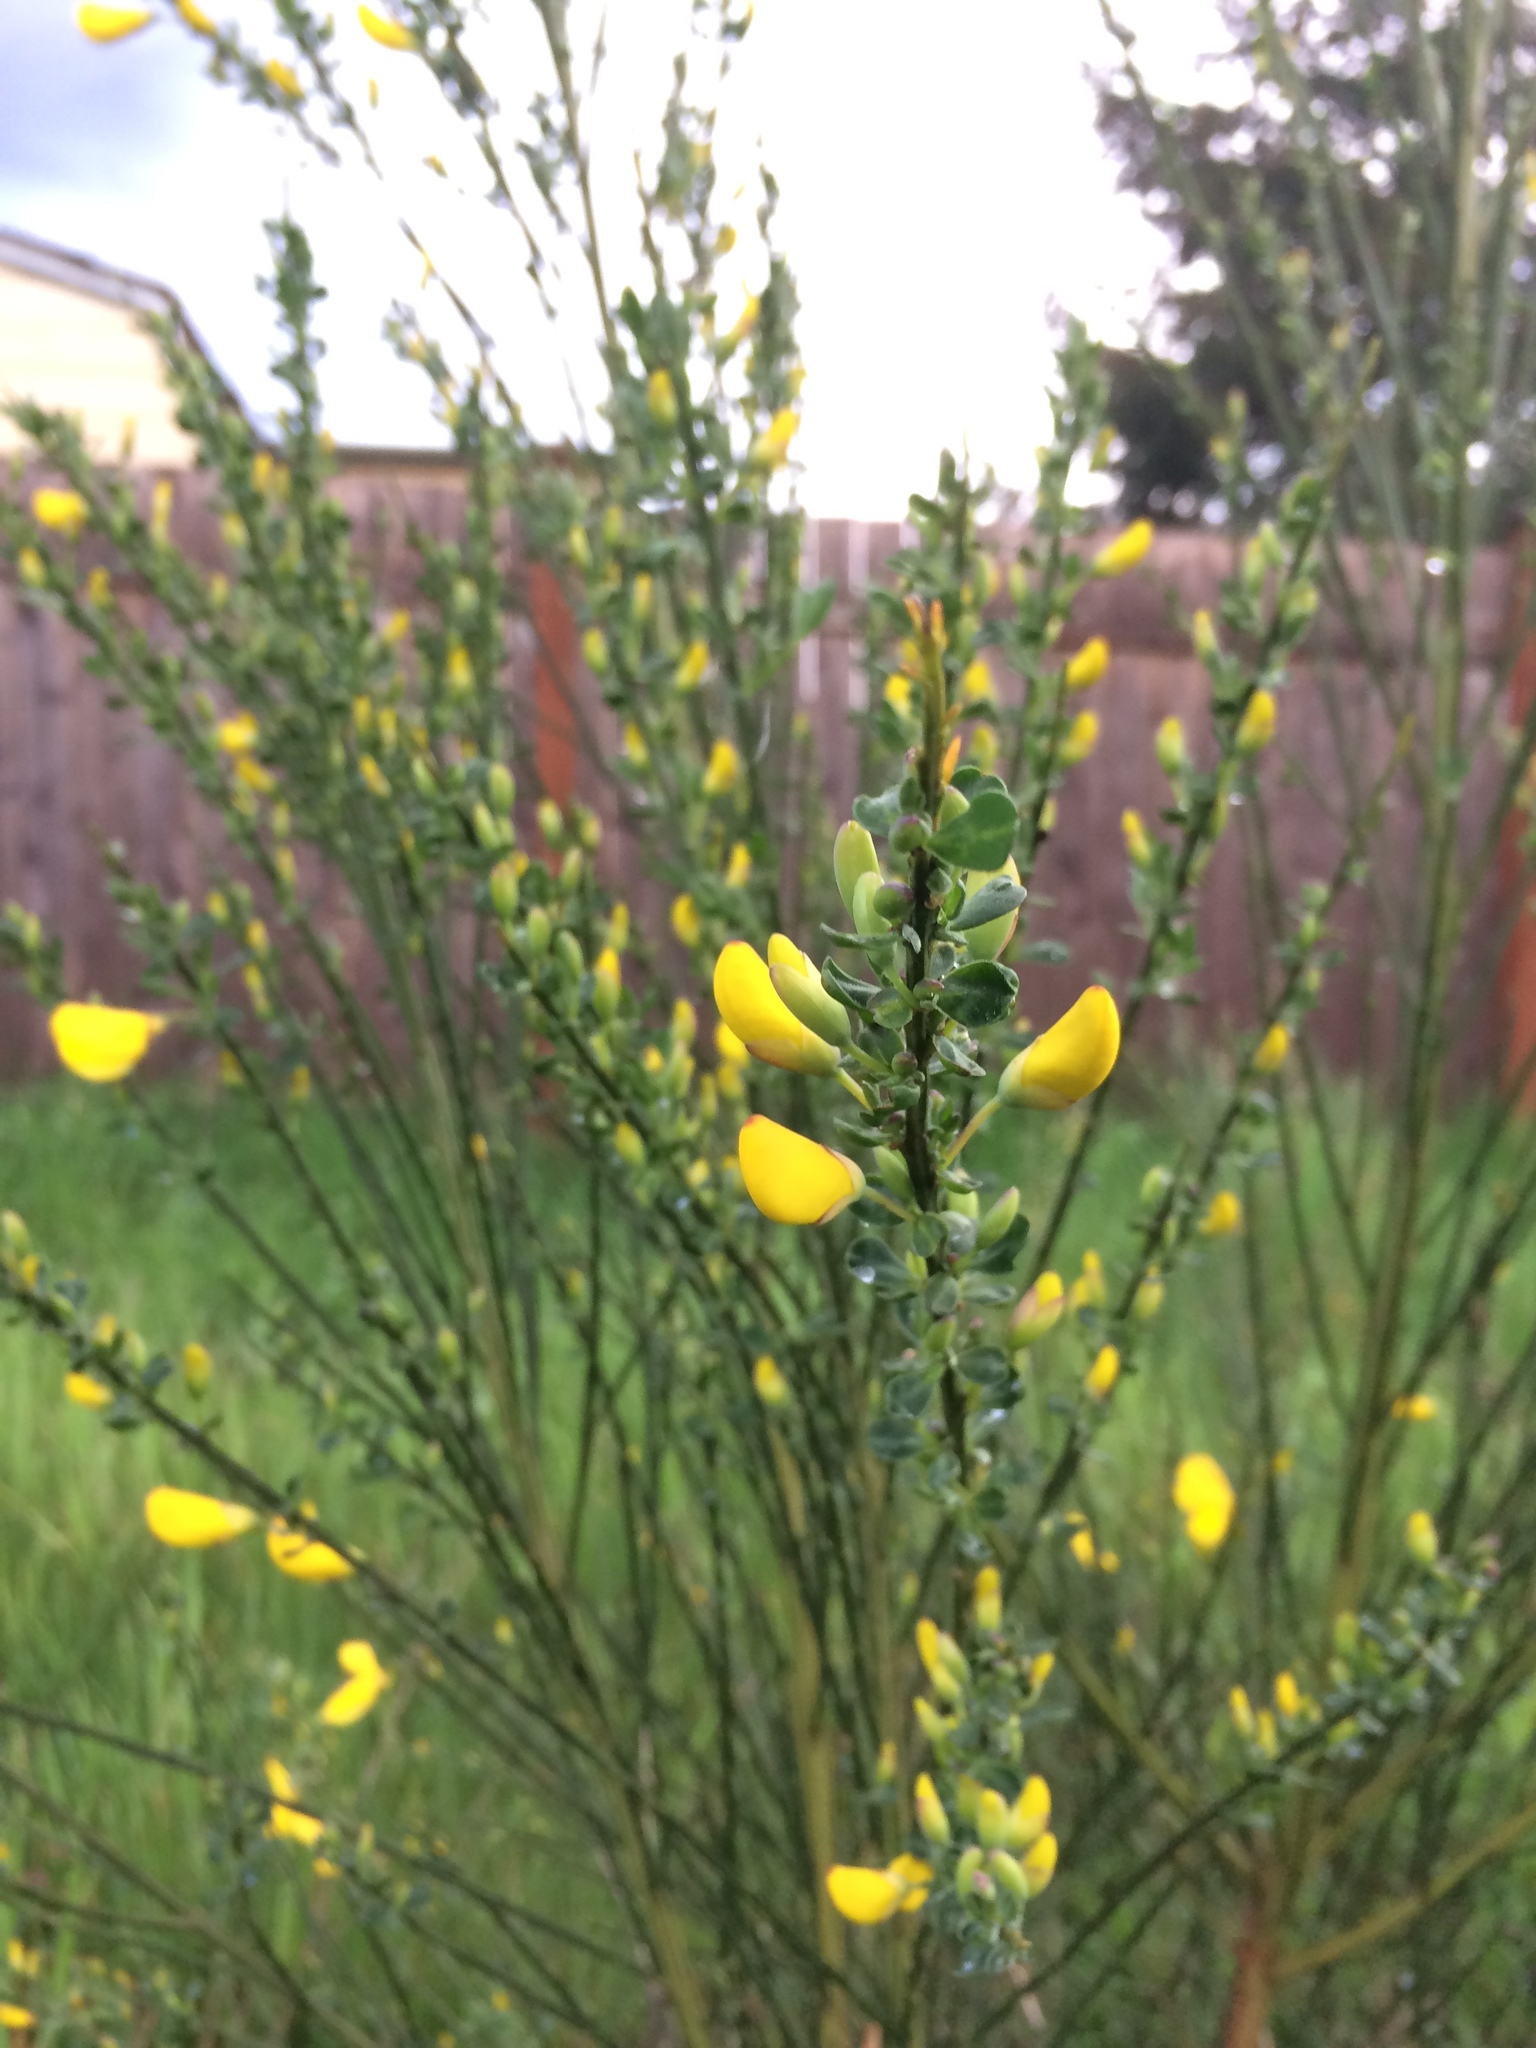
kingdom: Plantae
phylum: Tracheophyta
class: Magnoliopsida
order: Fabales
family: Fabaceae
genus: Cytisus
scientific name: Cytisus scoparius
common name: Scotch broom
